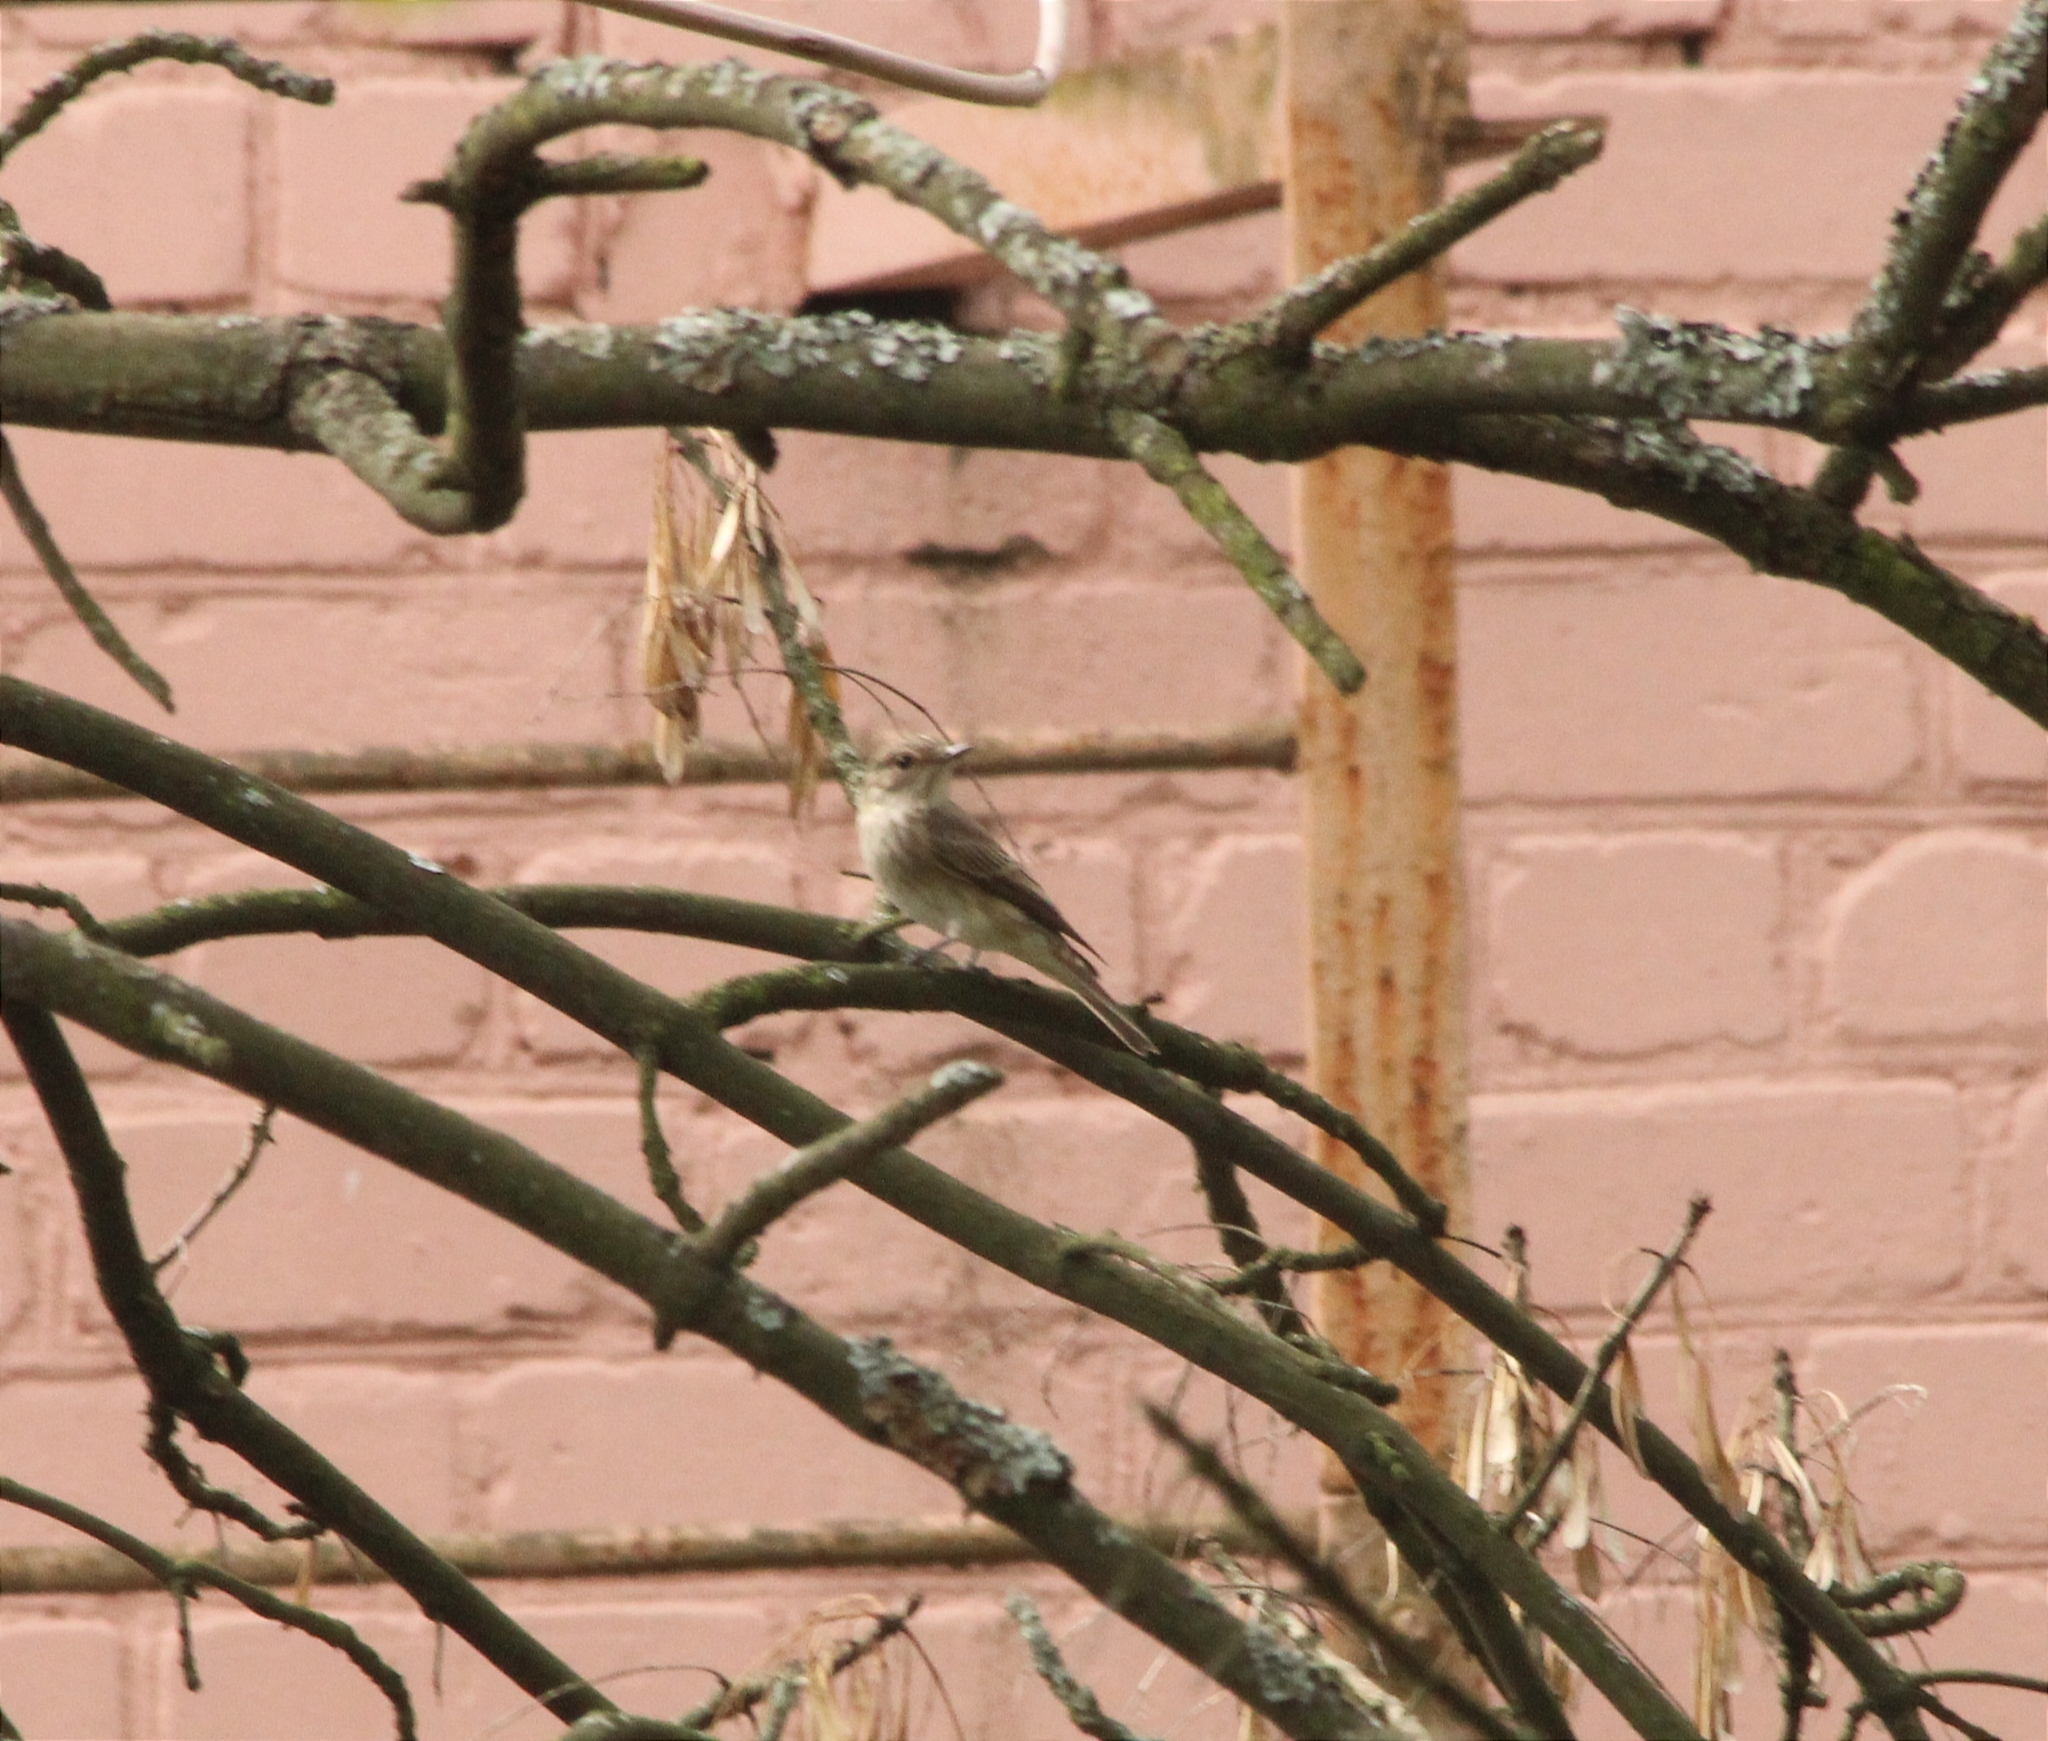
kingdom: Animalia
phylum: Chordata
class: Aves
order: Passeriformes
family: Muscicapidae
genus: Muscicapa
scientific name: Muscicapa striata
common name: Spotted flycatcher
